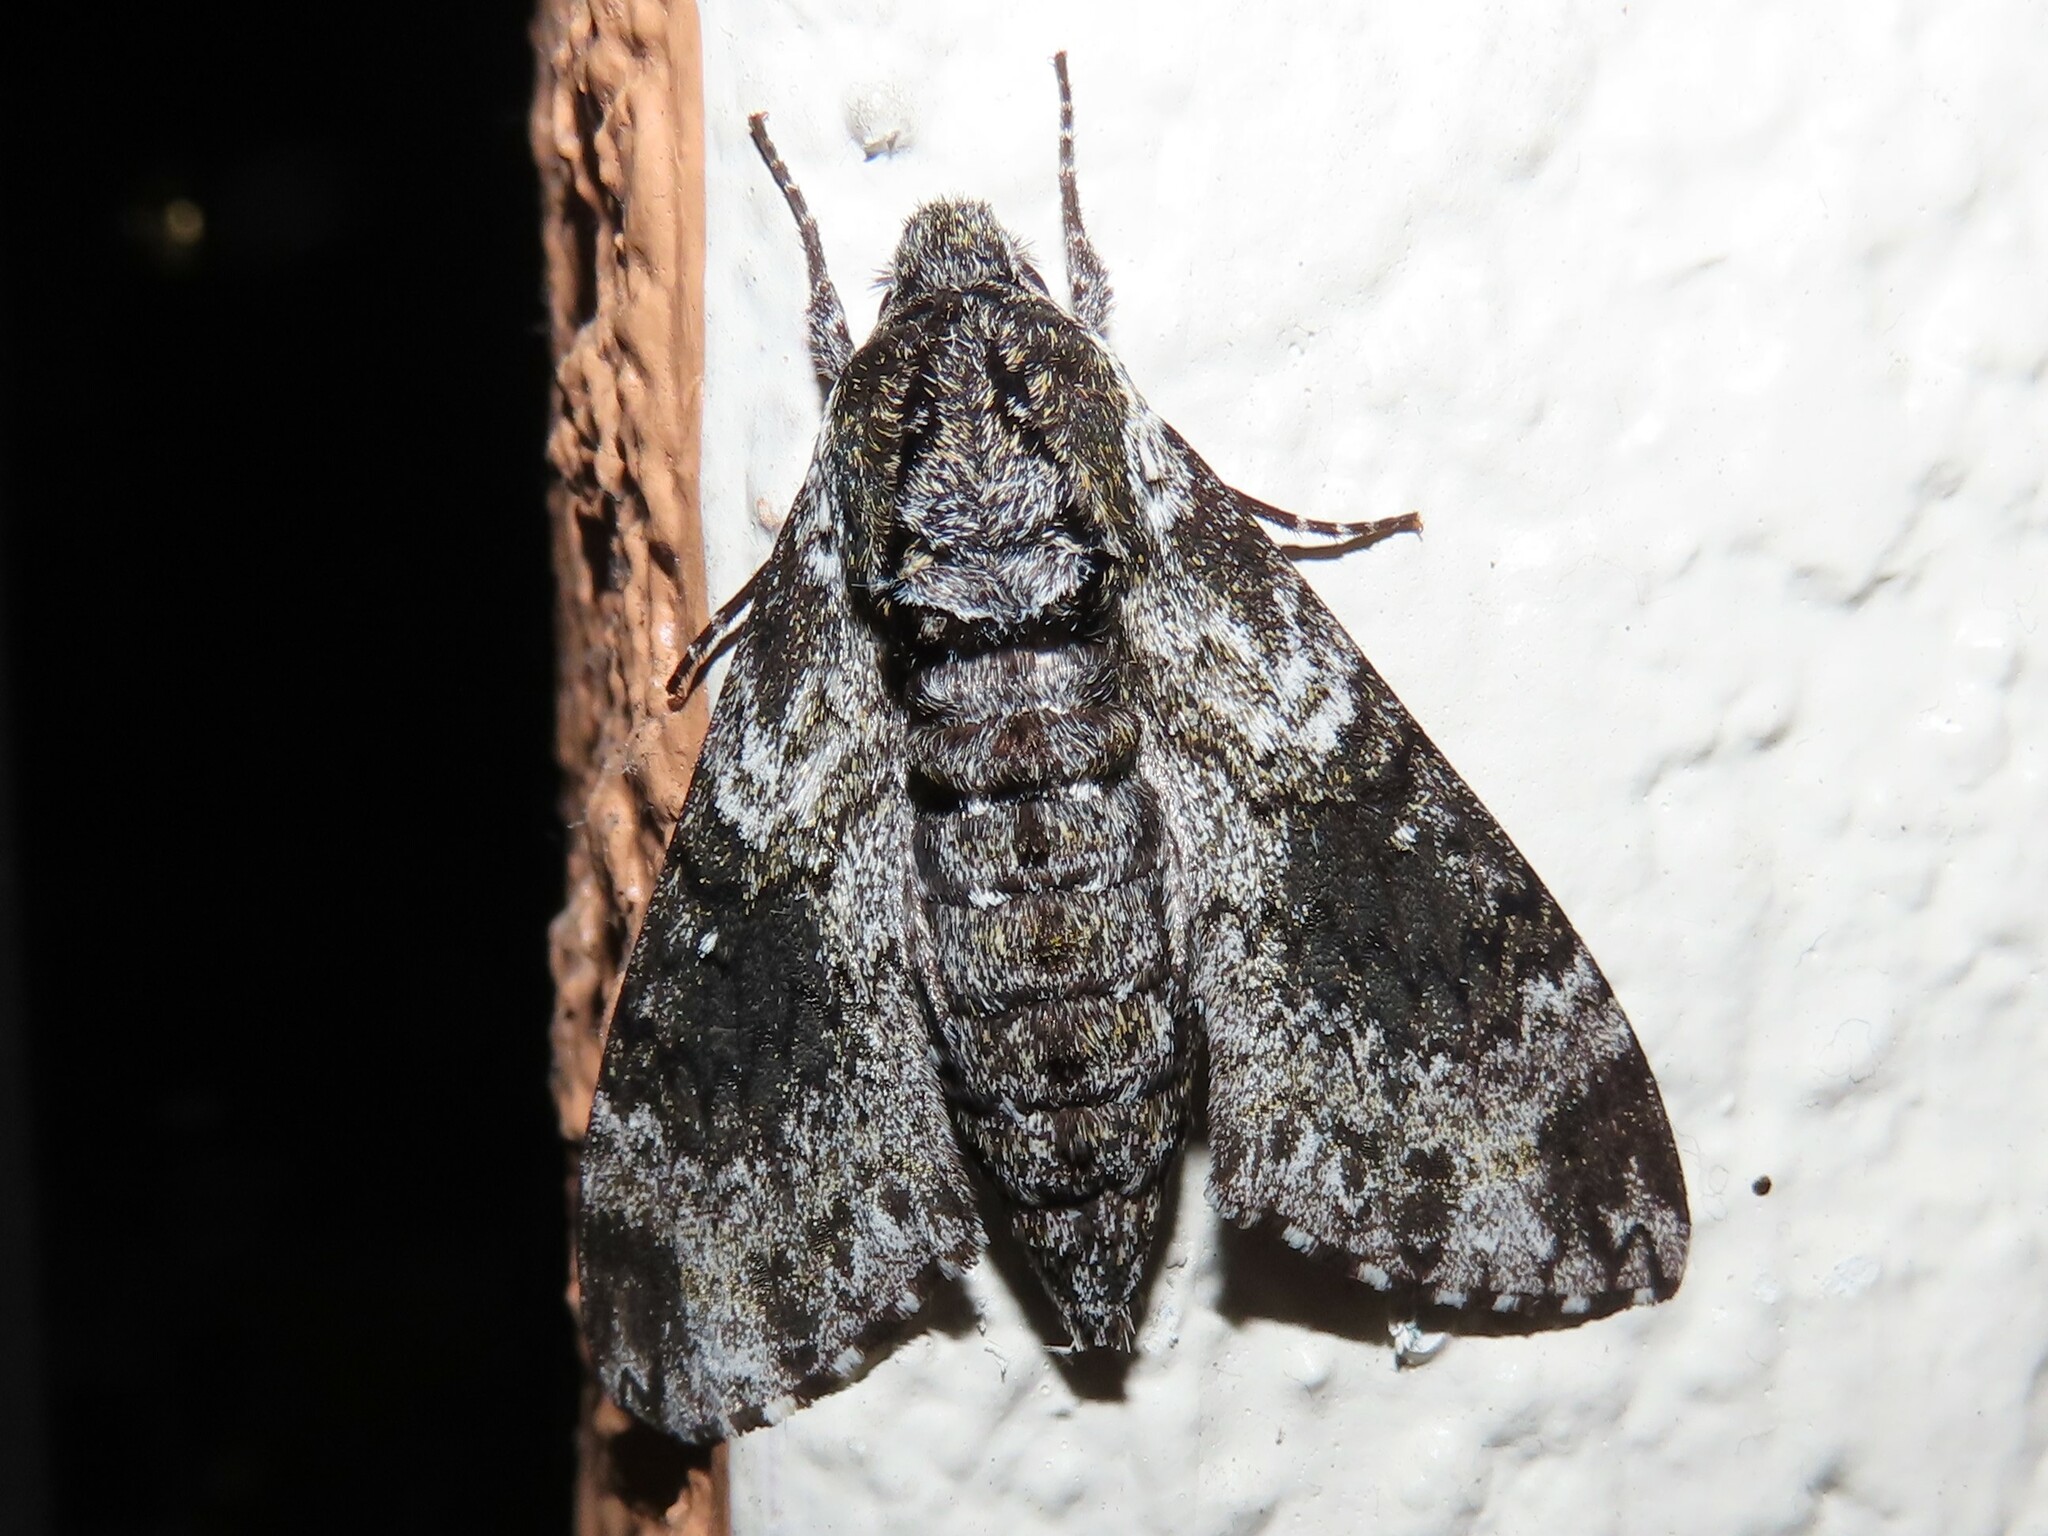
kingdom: Animalia
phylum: Arthropoda
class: Insecta
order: Lepidoptera
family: Sphingidae
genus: Dolba
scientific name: Dolba hyloeus
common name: Pawpaw sphinx
